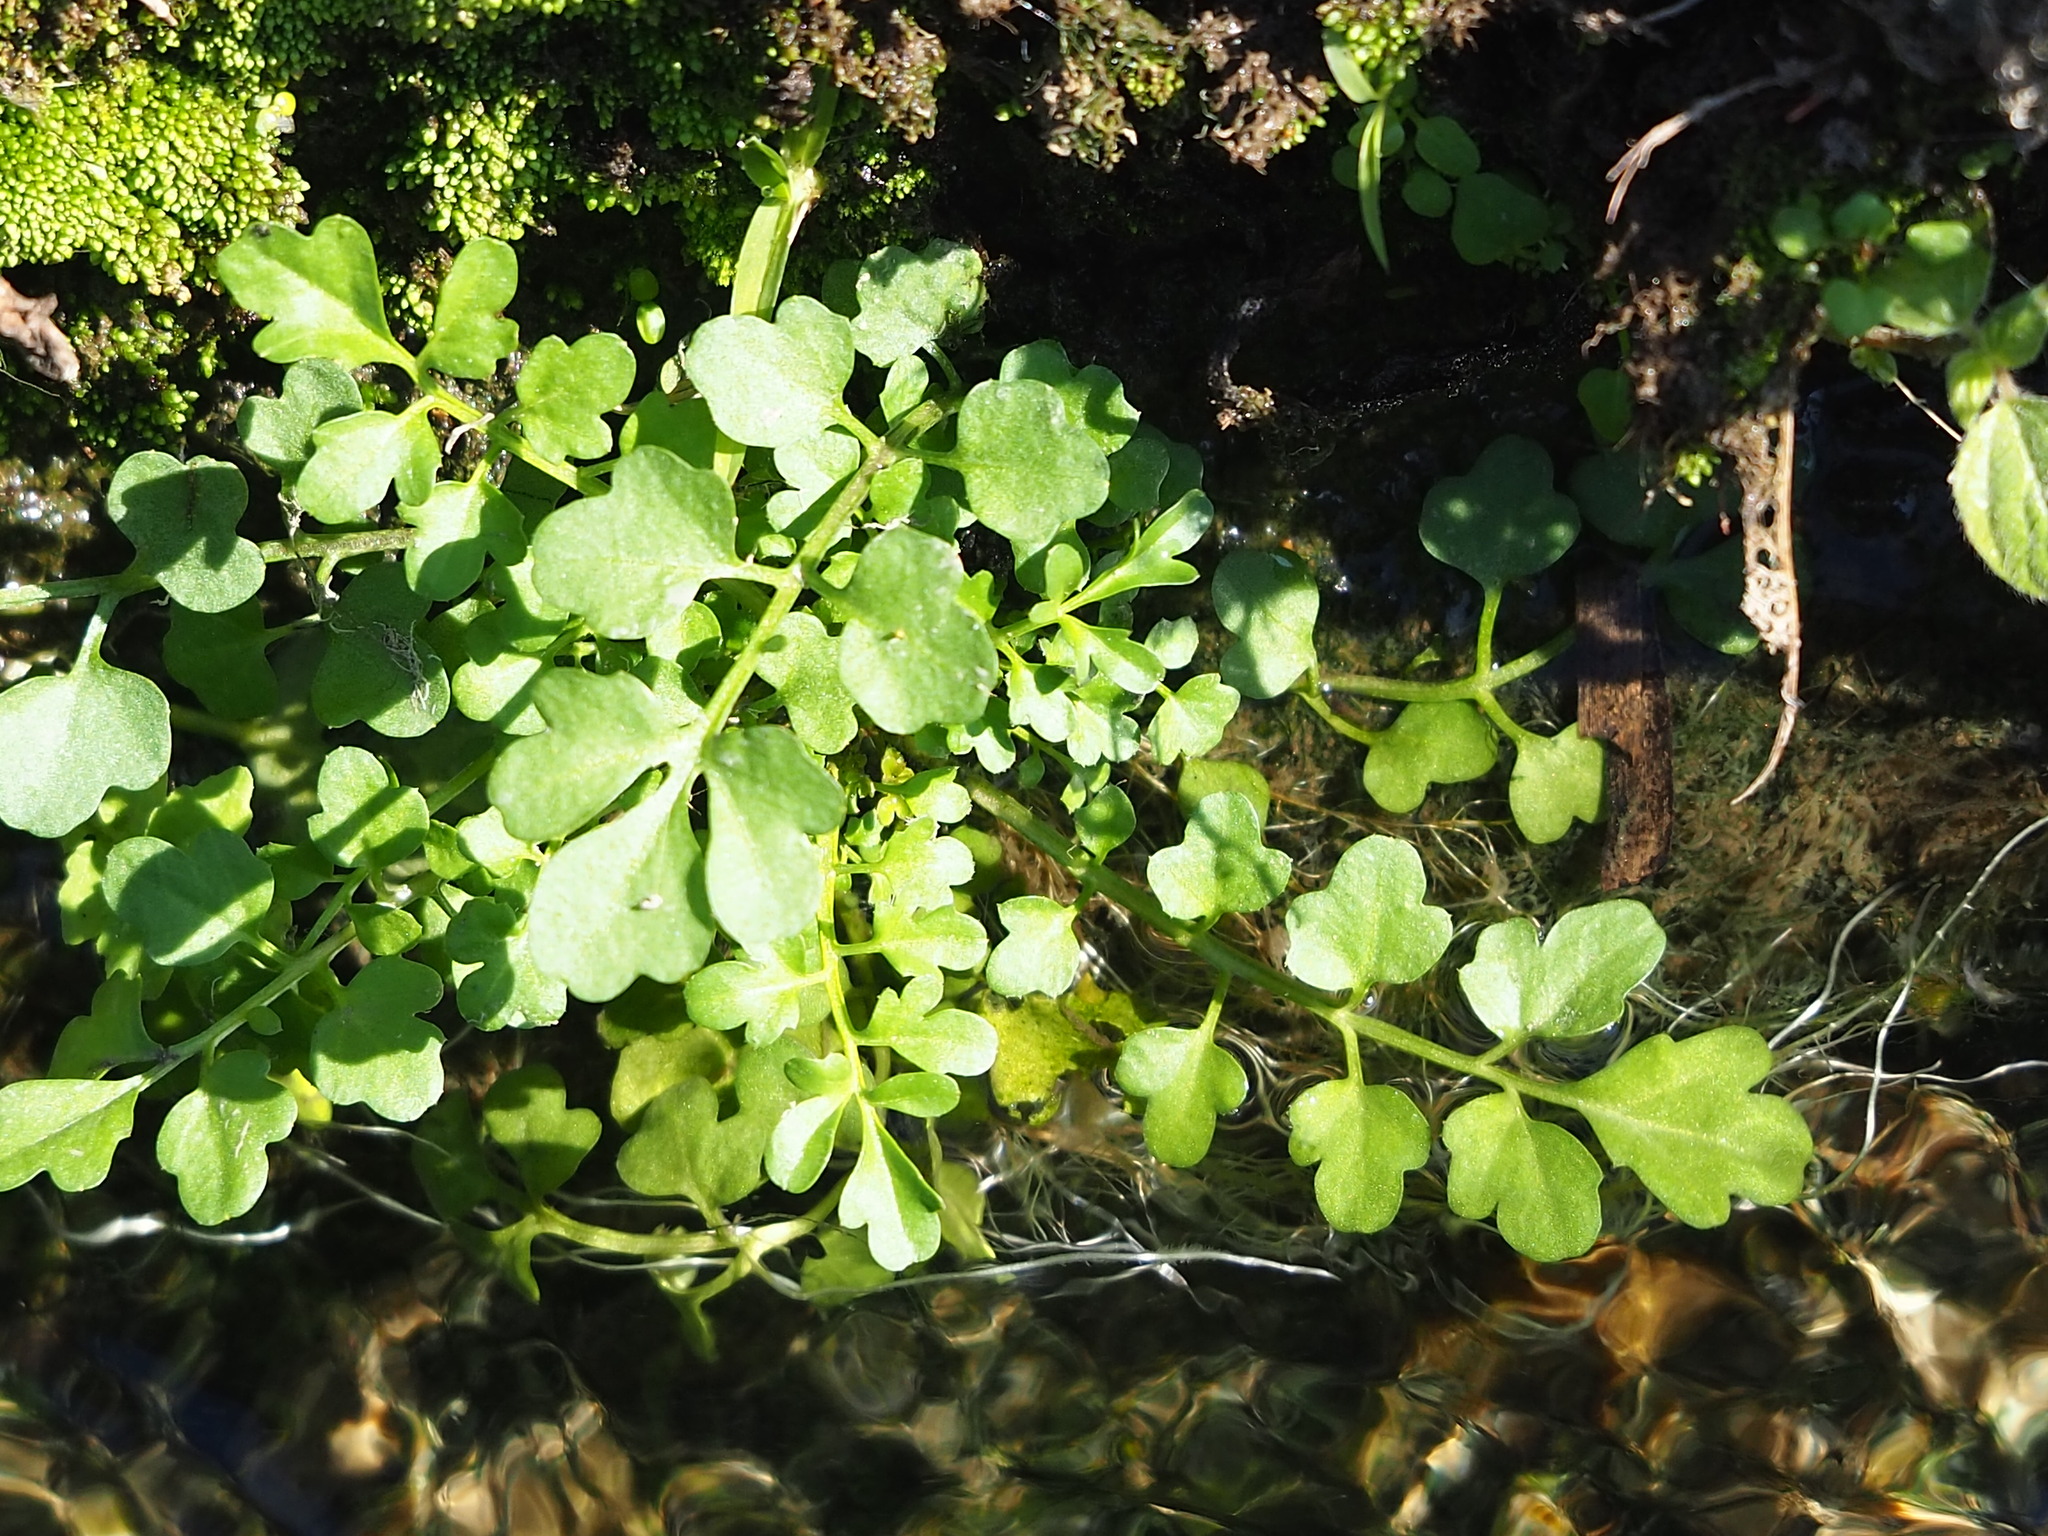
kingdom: Plantae
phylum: Tracheophyta
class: Magnoliopsida
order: Brassicales
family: Brassicaceae
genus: Cardamine
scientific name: Cardamine occulta
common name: Asian wavy bittercress
